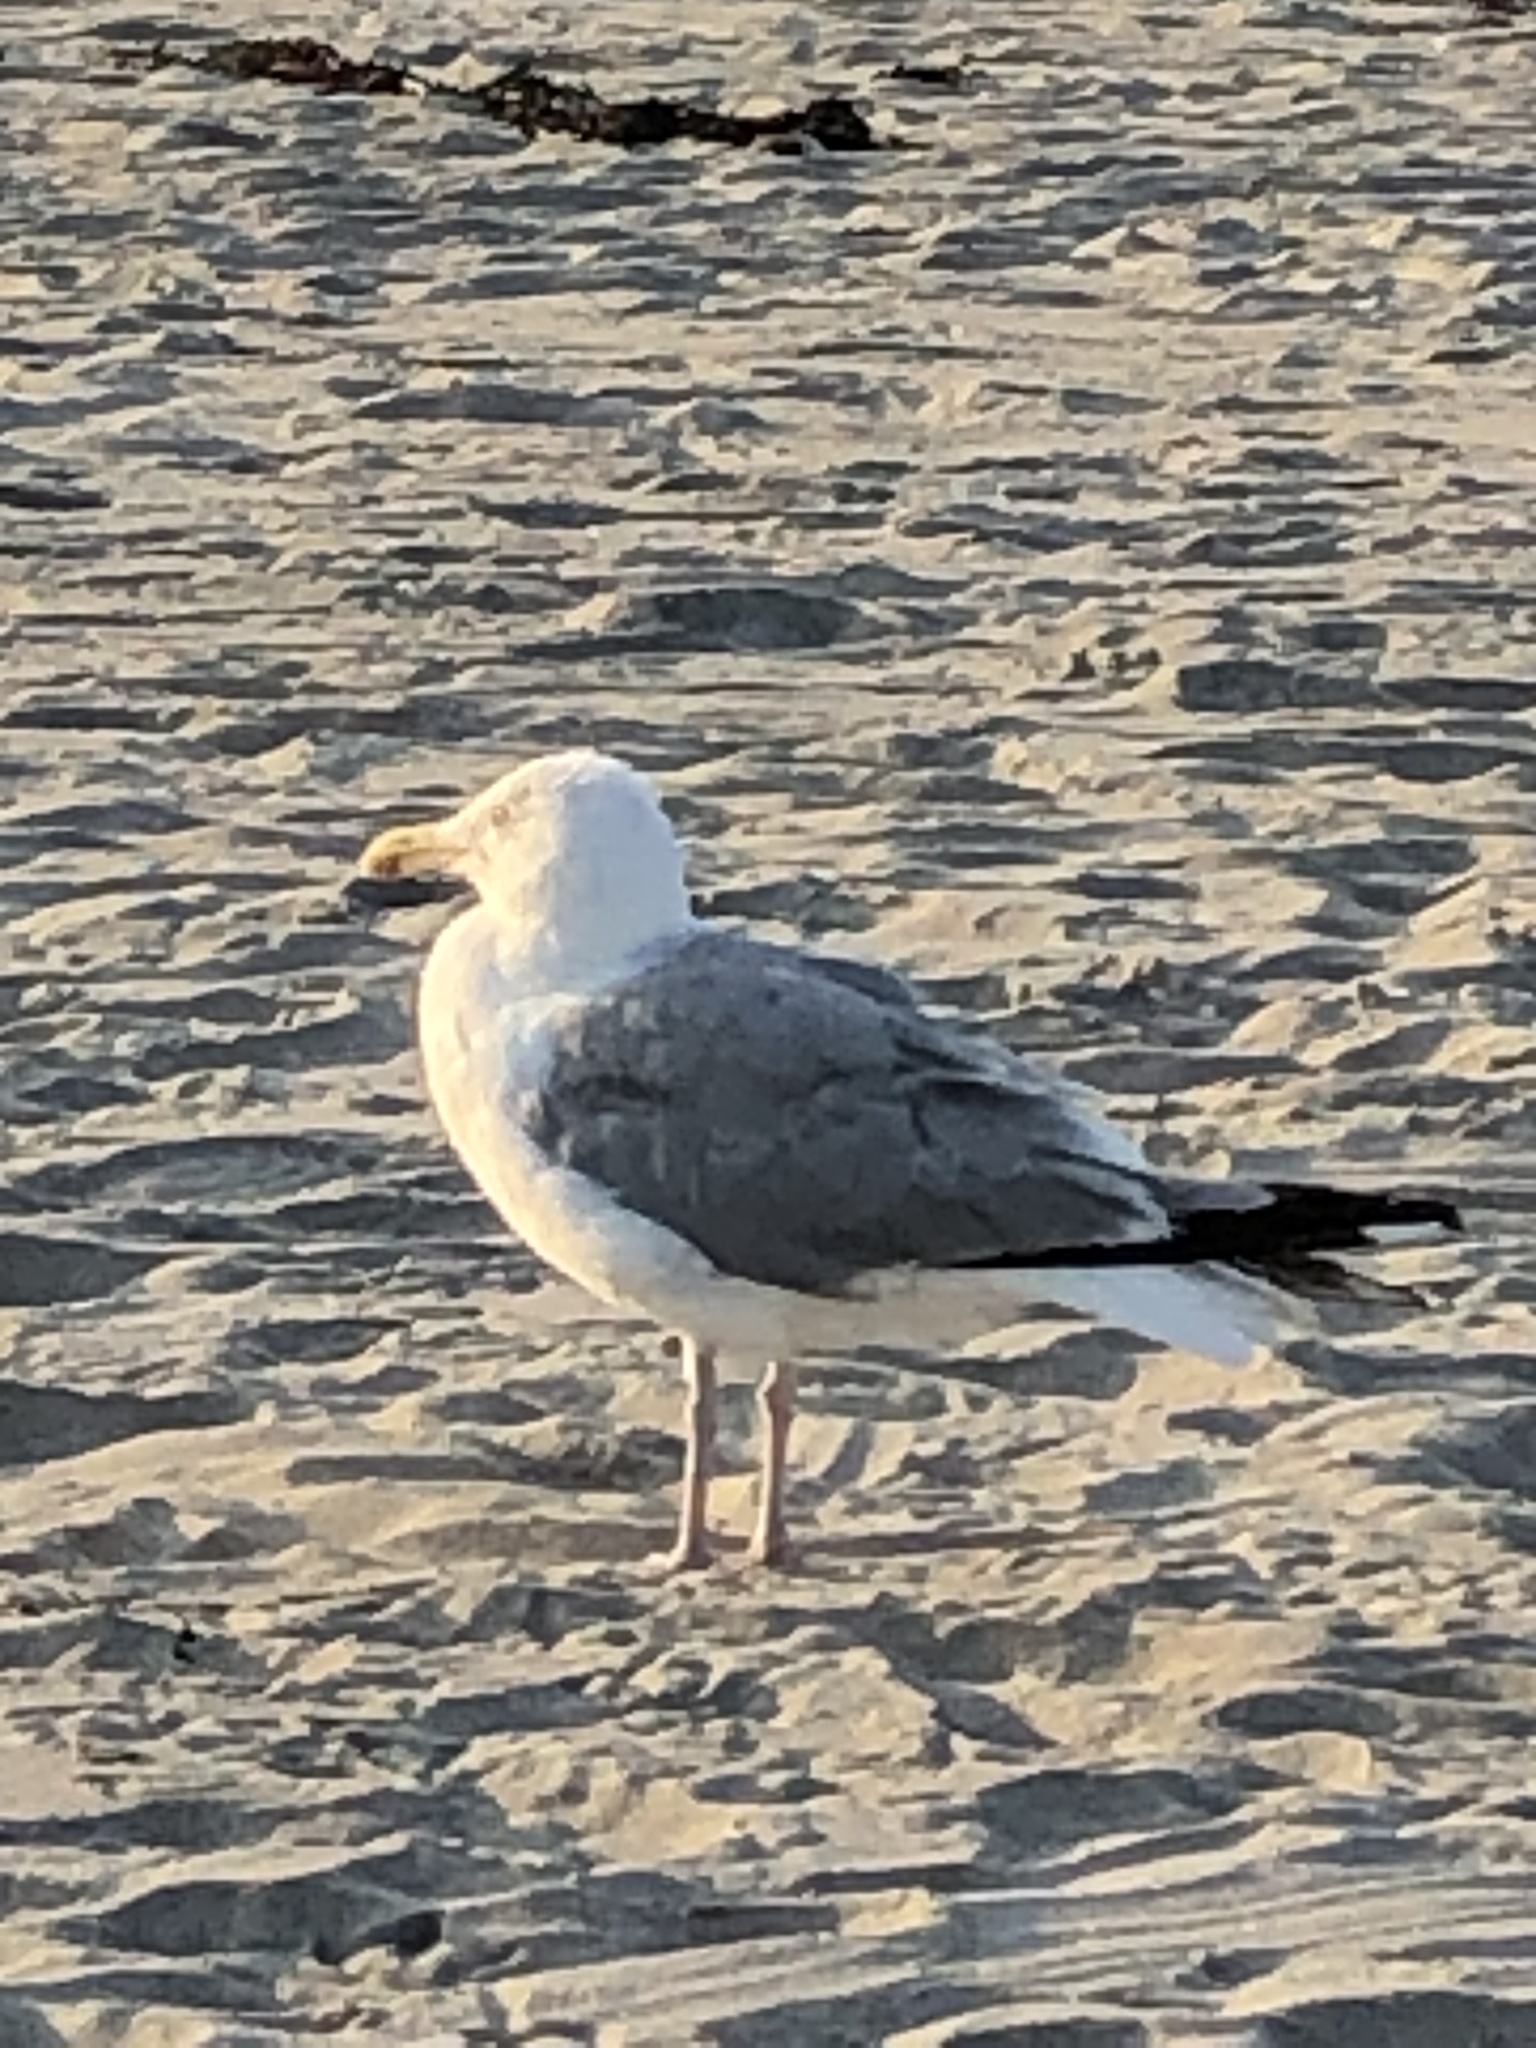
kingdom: Animalia
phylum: Chordata
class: Aves
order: Charadriiformes
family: Laridae
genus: Larus
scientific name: Larus argentatus
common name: Herring gull
